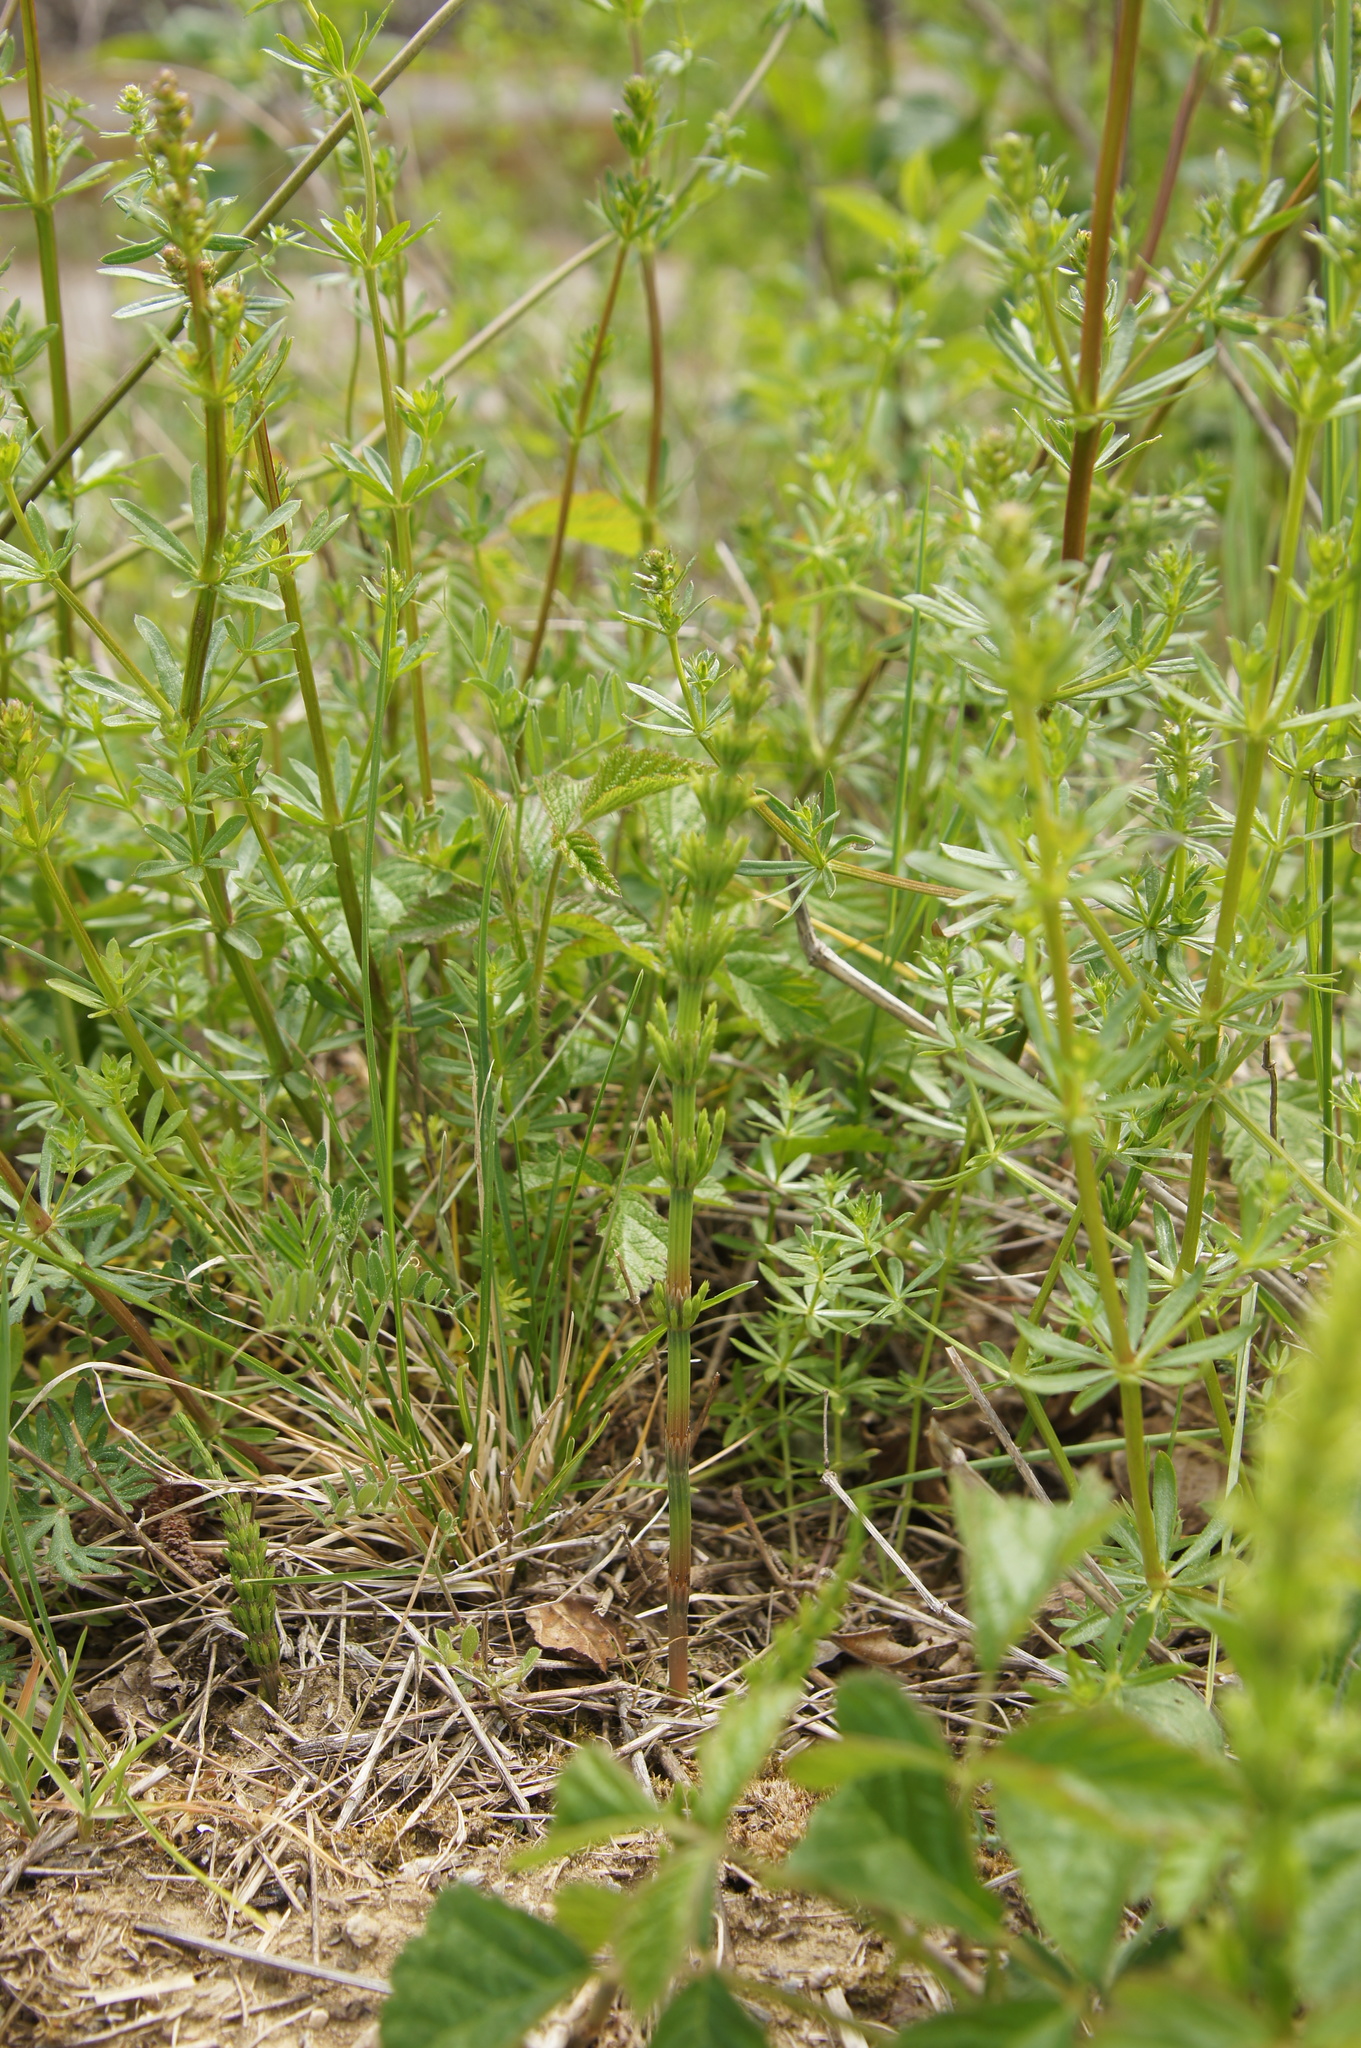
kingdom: Plantae
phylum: Tracheophyta
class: Polypodiopsida
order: Equisetales
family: Equisetaceae
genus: Equisetum
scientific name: Equisetum arvense
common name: Field horsetail
